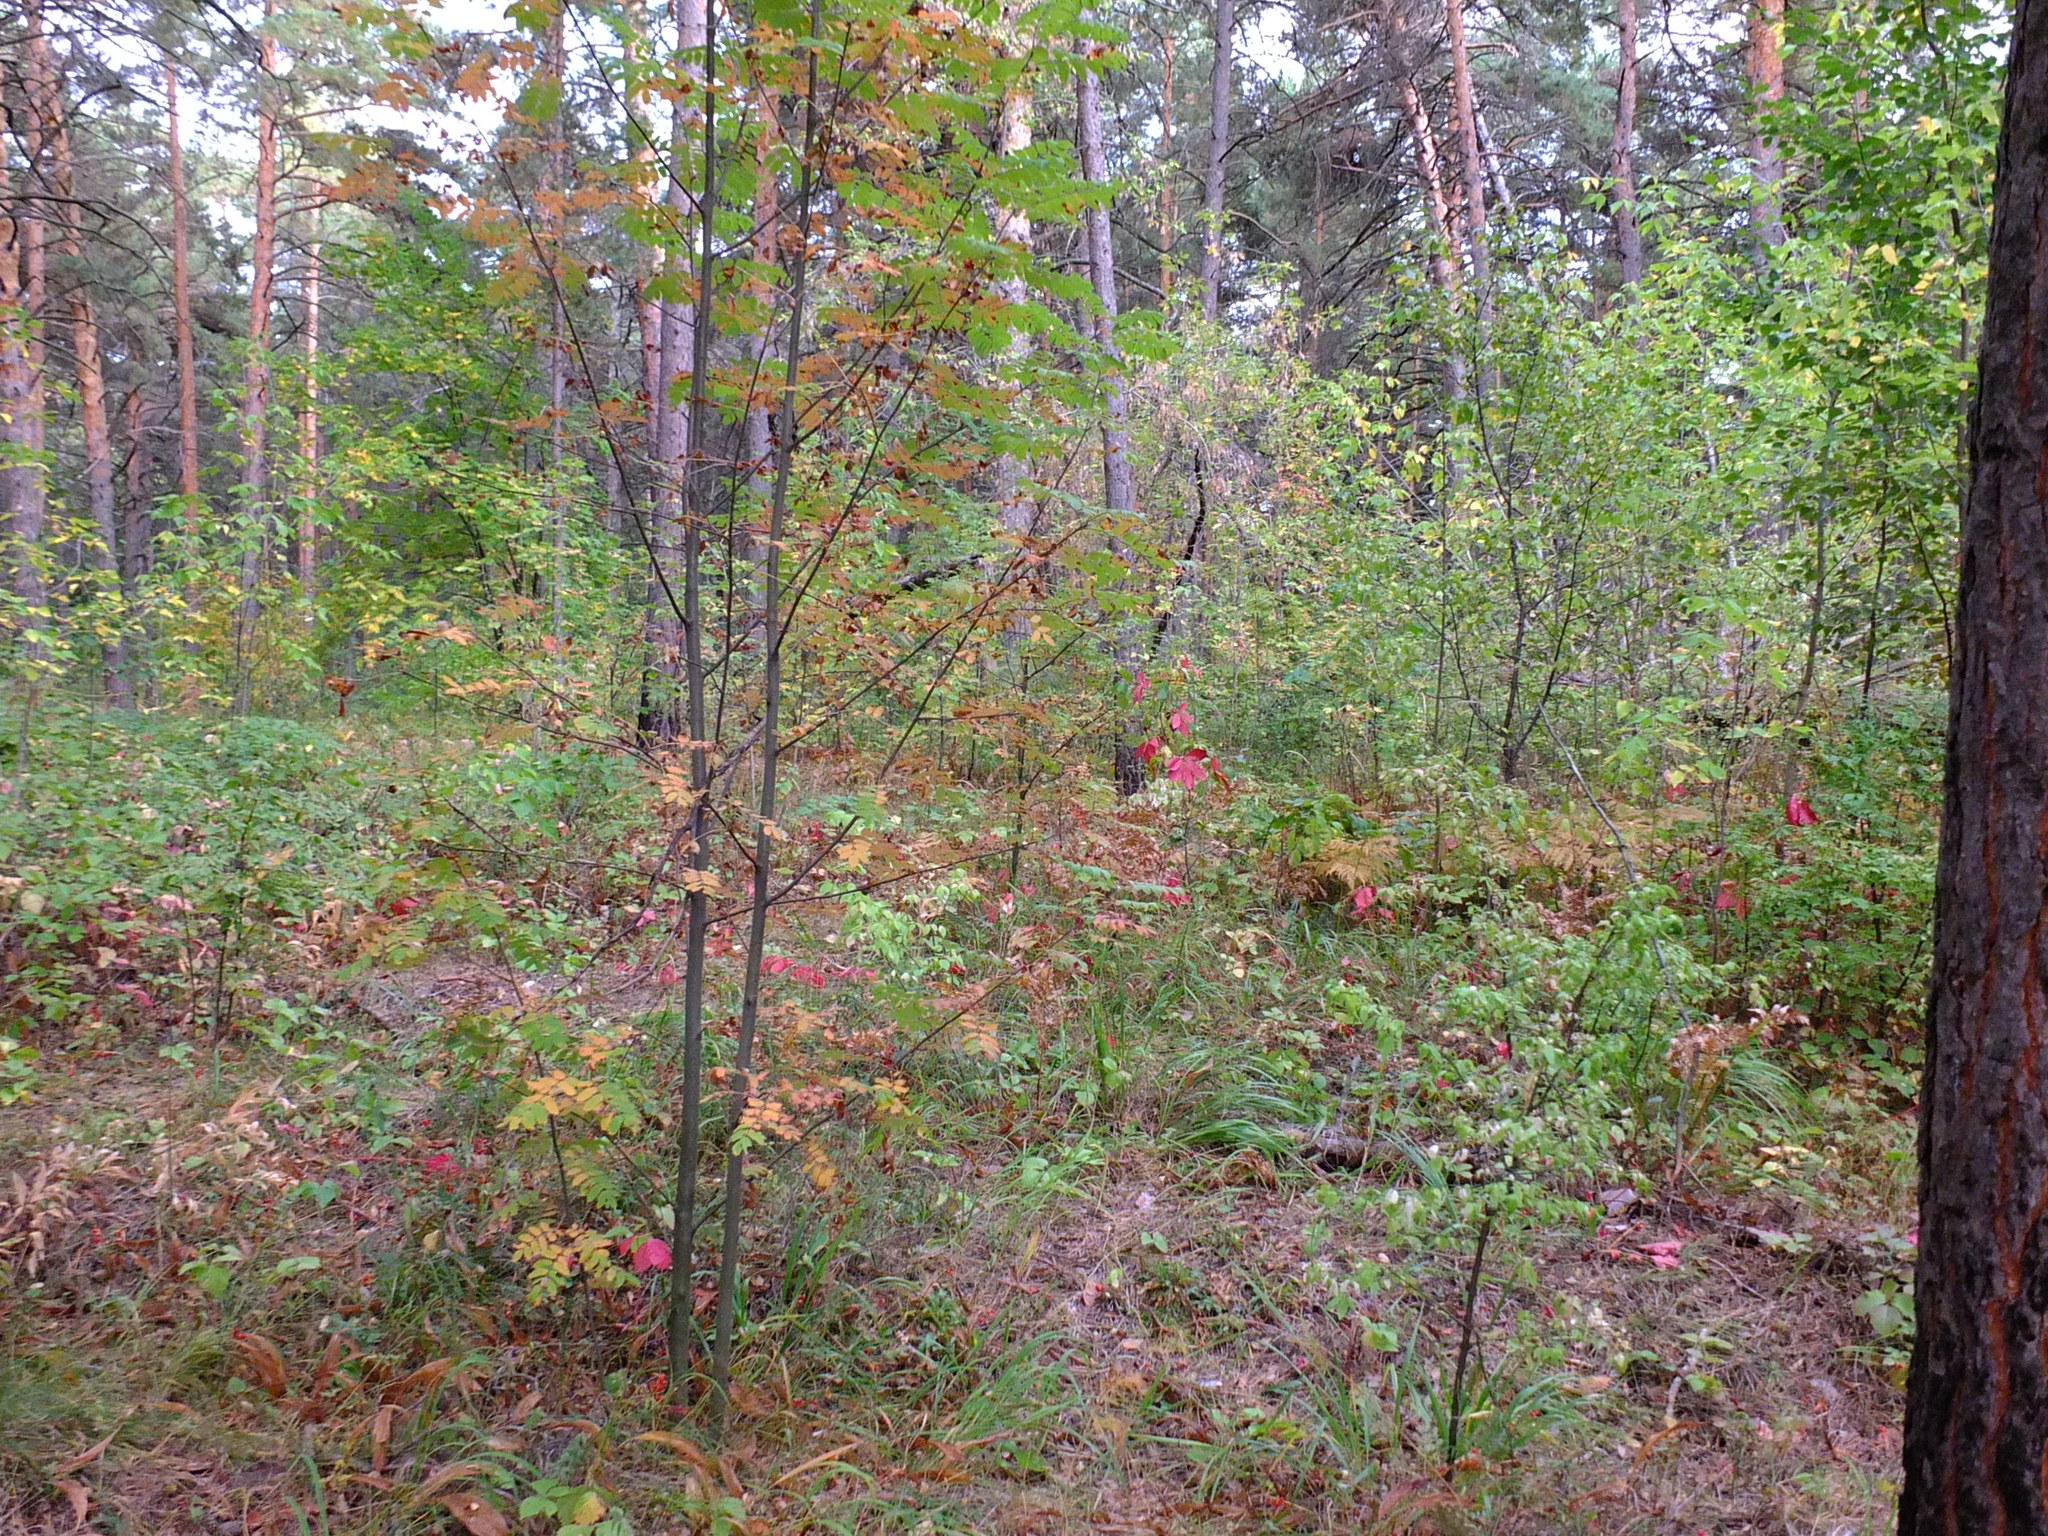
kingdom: Plantae
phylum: Tracheophyta
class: Magnoliopsida
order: Rosales
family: Rosaceae
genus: Sorbus
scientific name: Sorbus aucuparia
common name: Rowan
